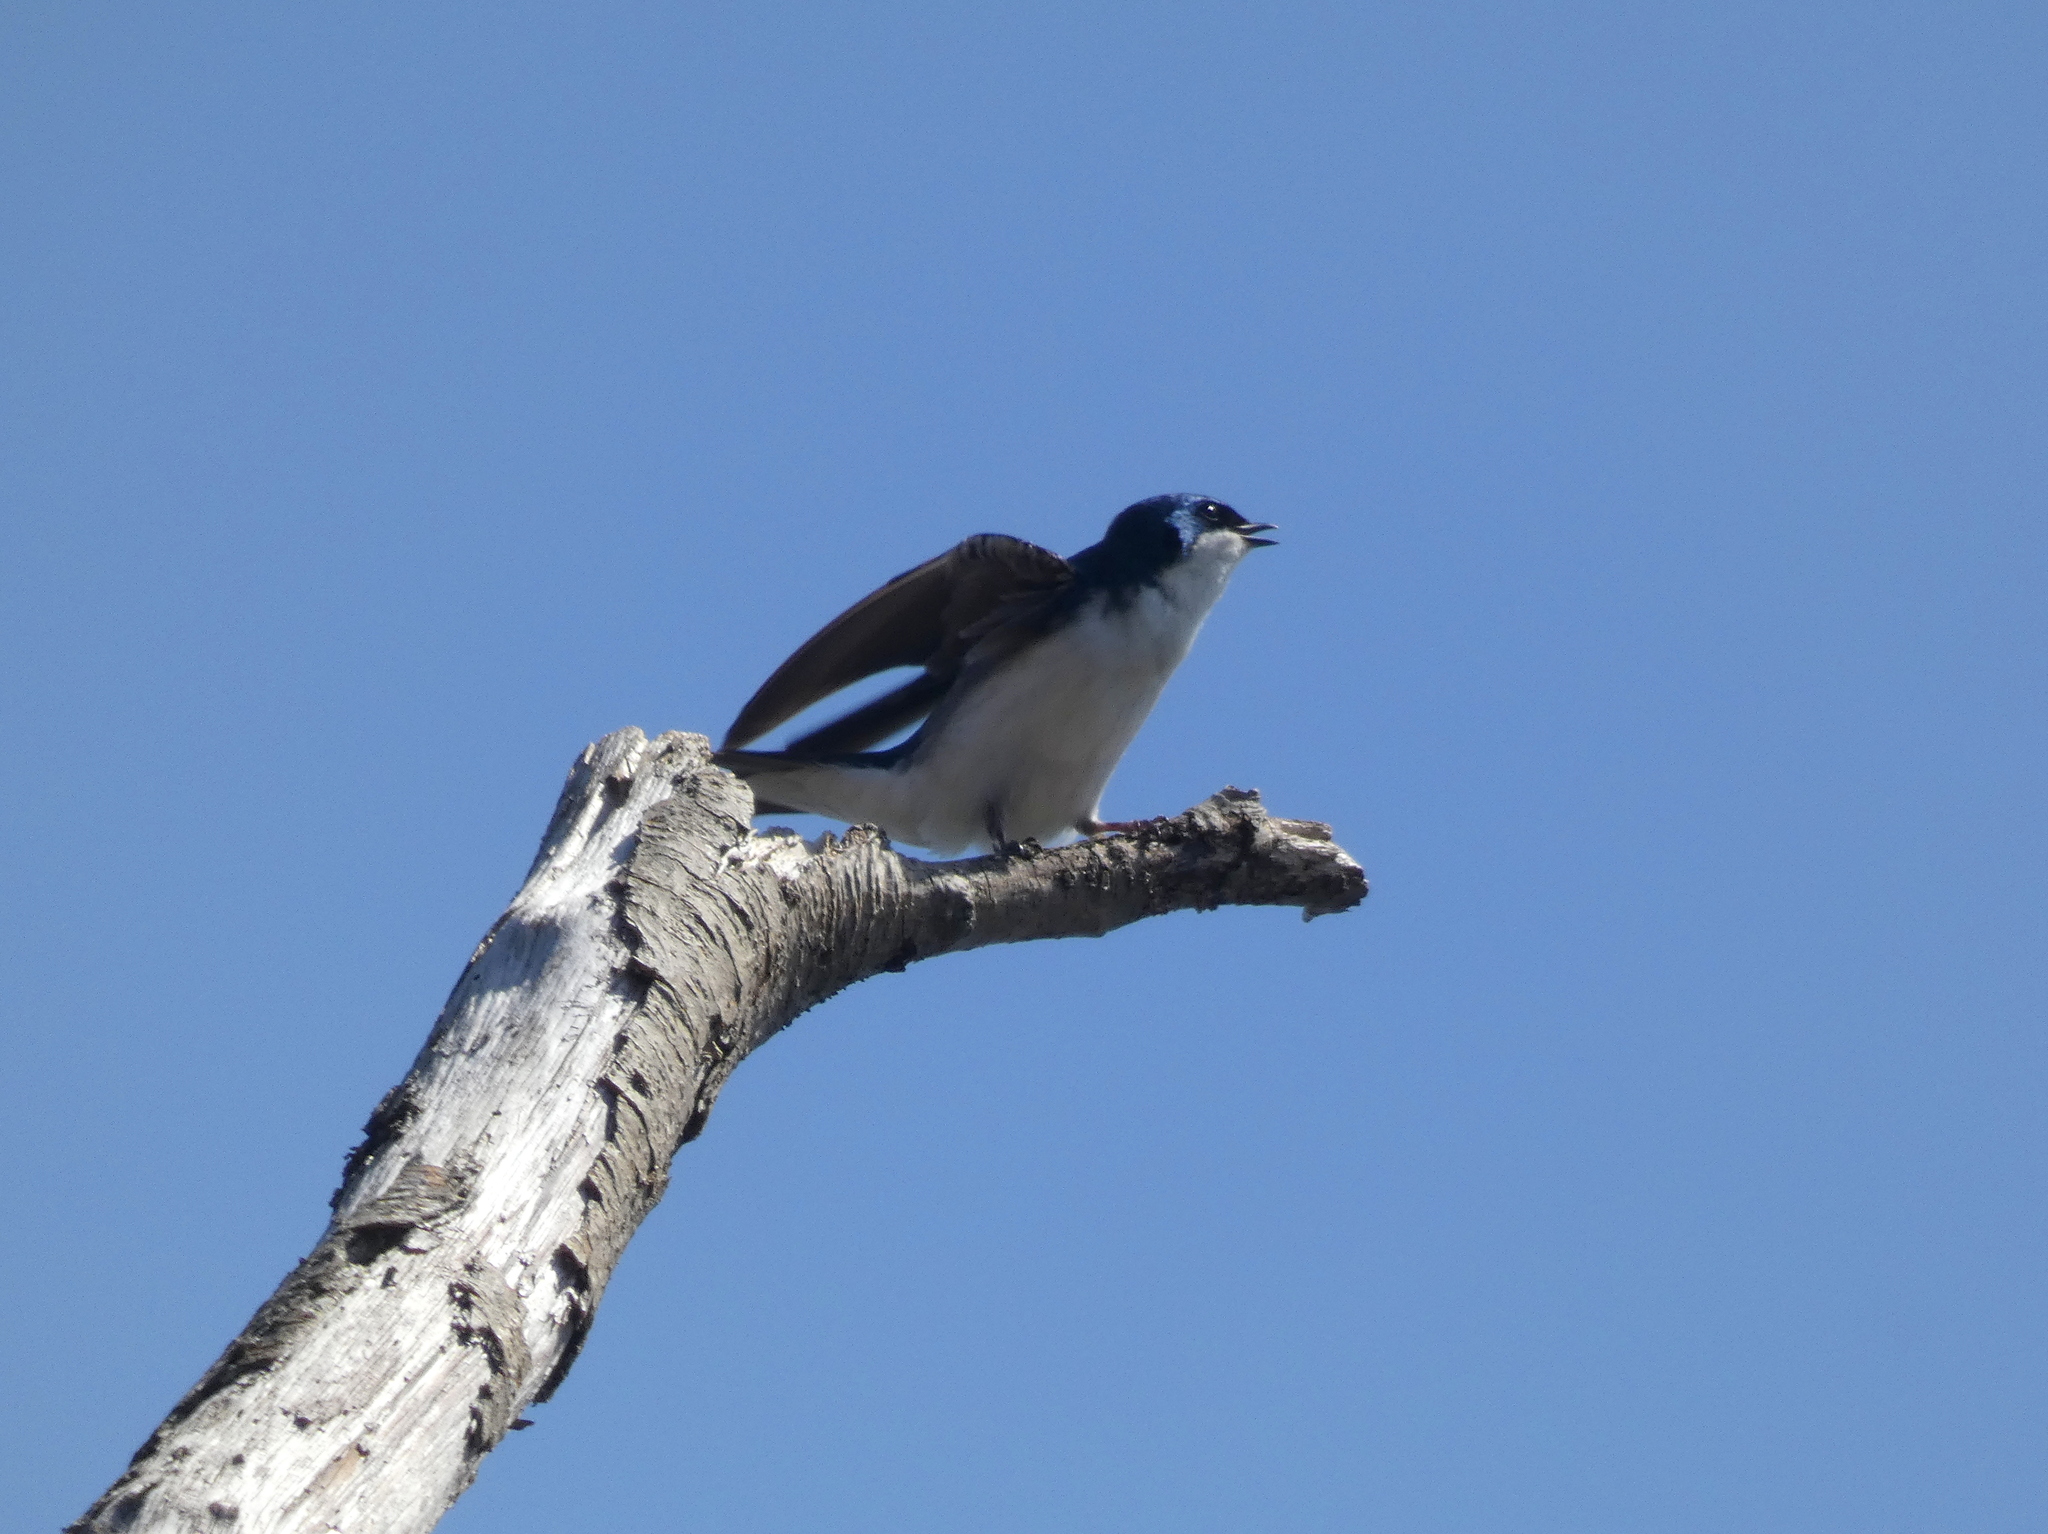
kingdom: Animalia
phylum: Chordata
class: Aves
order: Passeriformes
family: Hirundinidae
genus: Tachycineta
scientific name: Tachycineta bicolor
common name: Tree swallow
